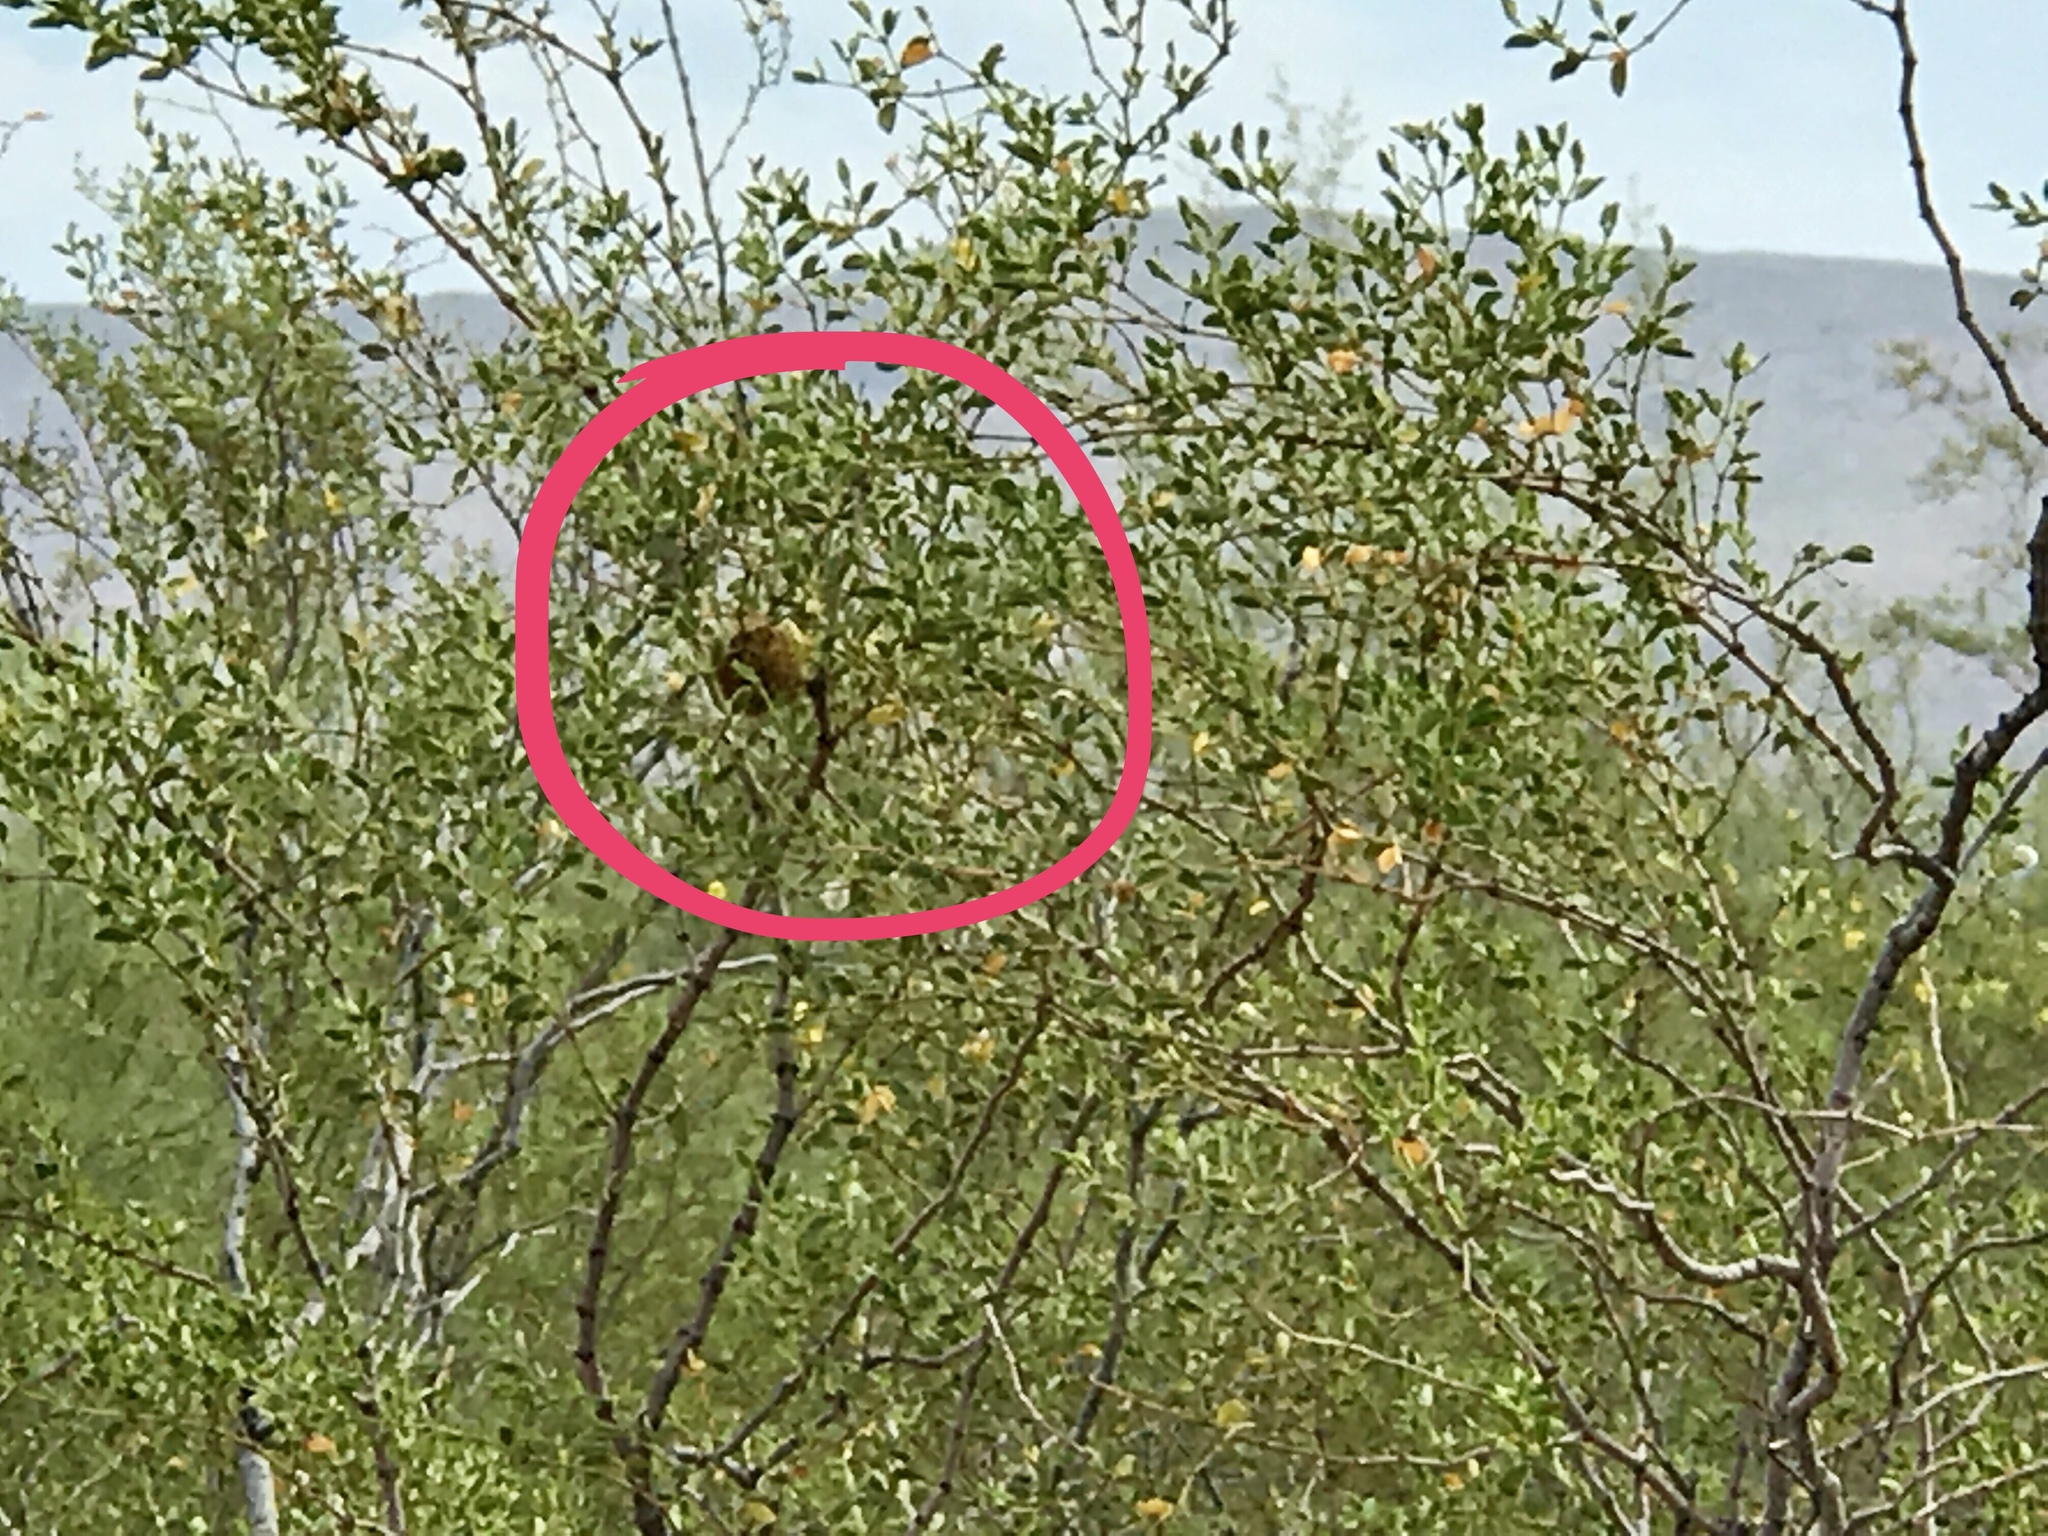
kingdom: Animalia
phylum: Arthropoda
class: Insecta
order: Diptera
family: Cecidomyiidae
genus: Asphondylia
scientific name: Asphondylia auripila
